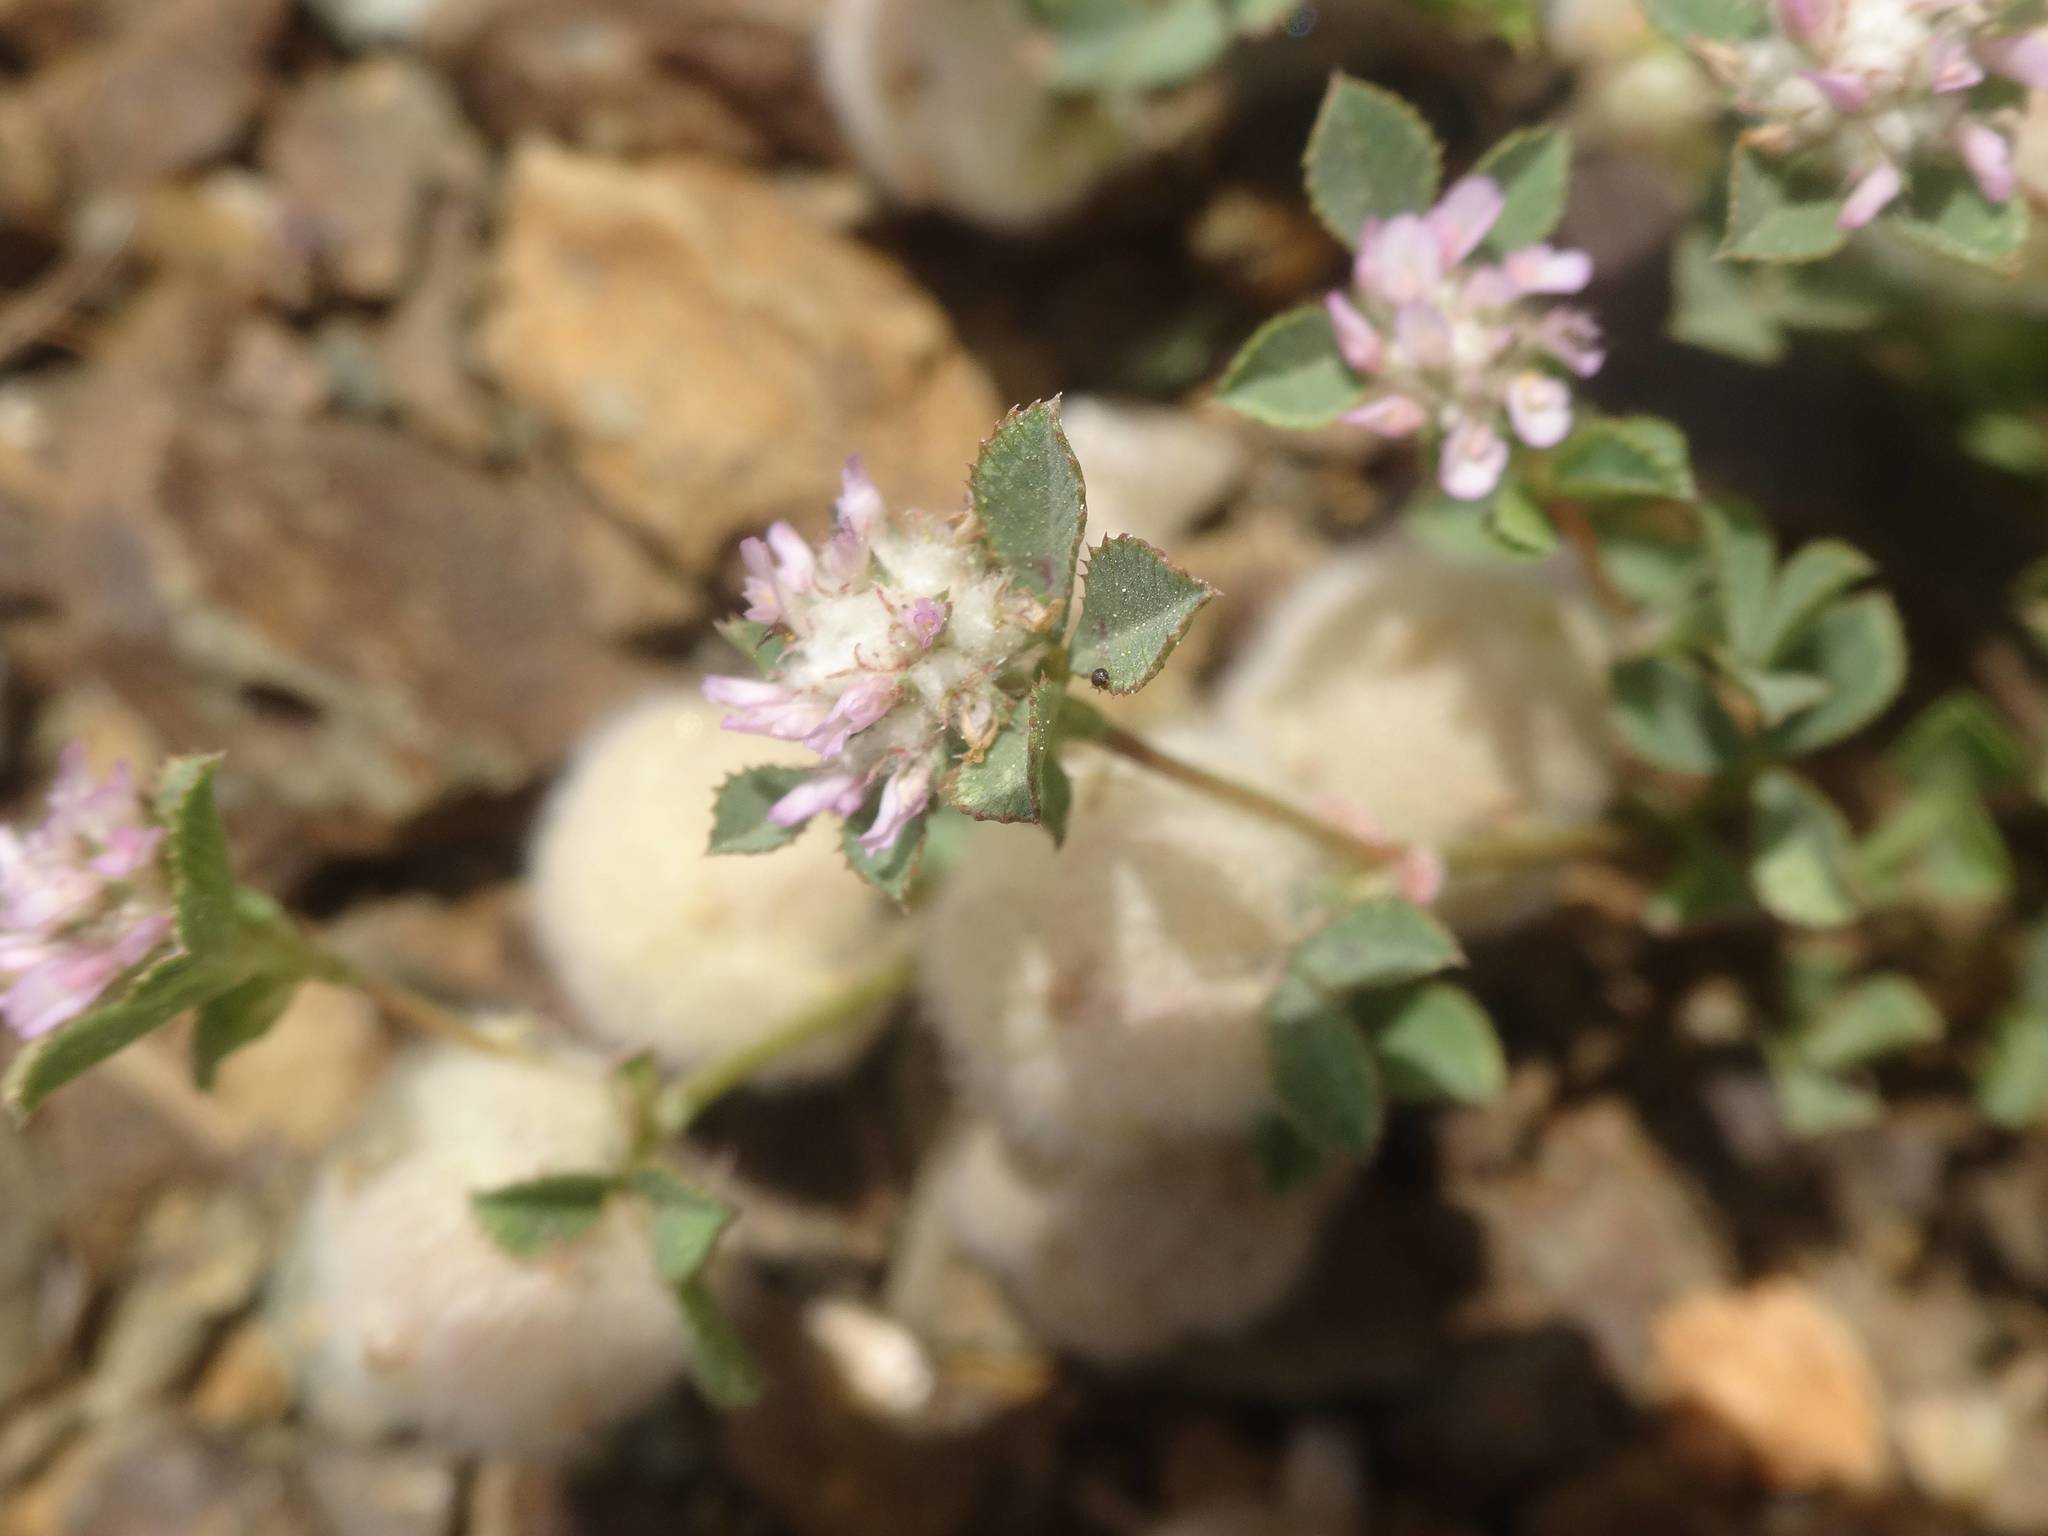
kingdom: Plantae
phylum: Tracheophyta
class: Magnoliopsida
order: Fabales
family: Fabaceae
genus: Trifolium
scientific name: Trifolium tomentosum
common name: Woolly clover
